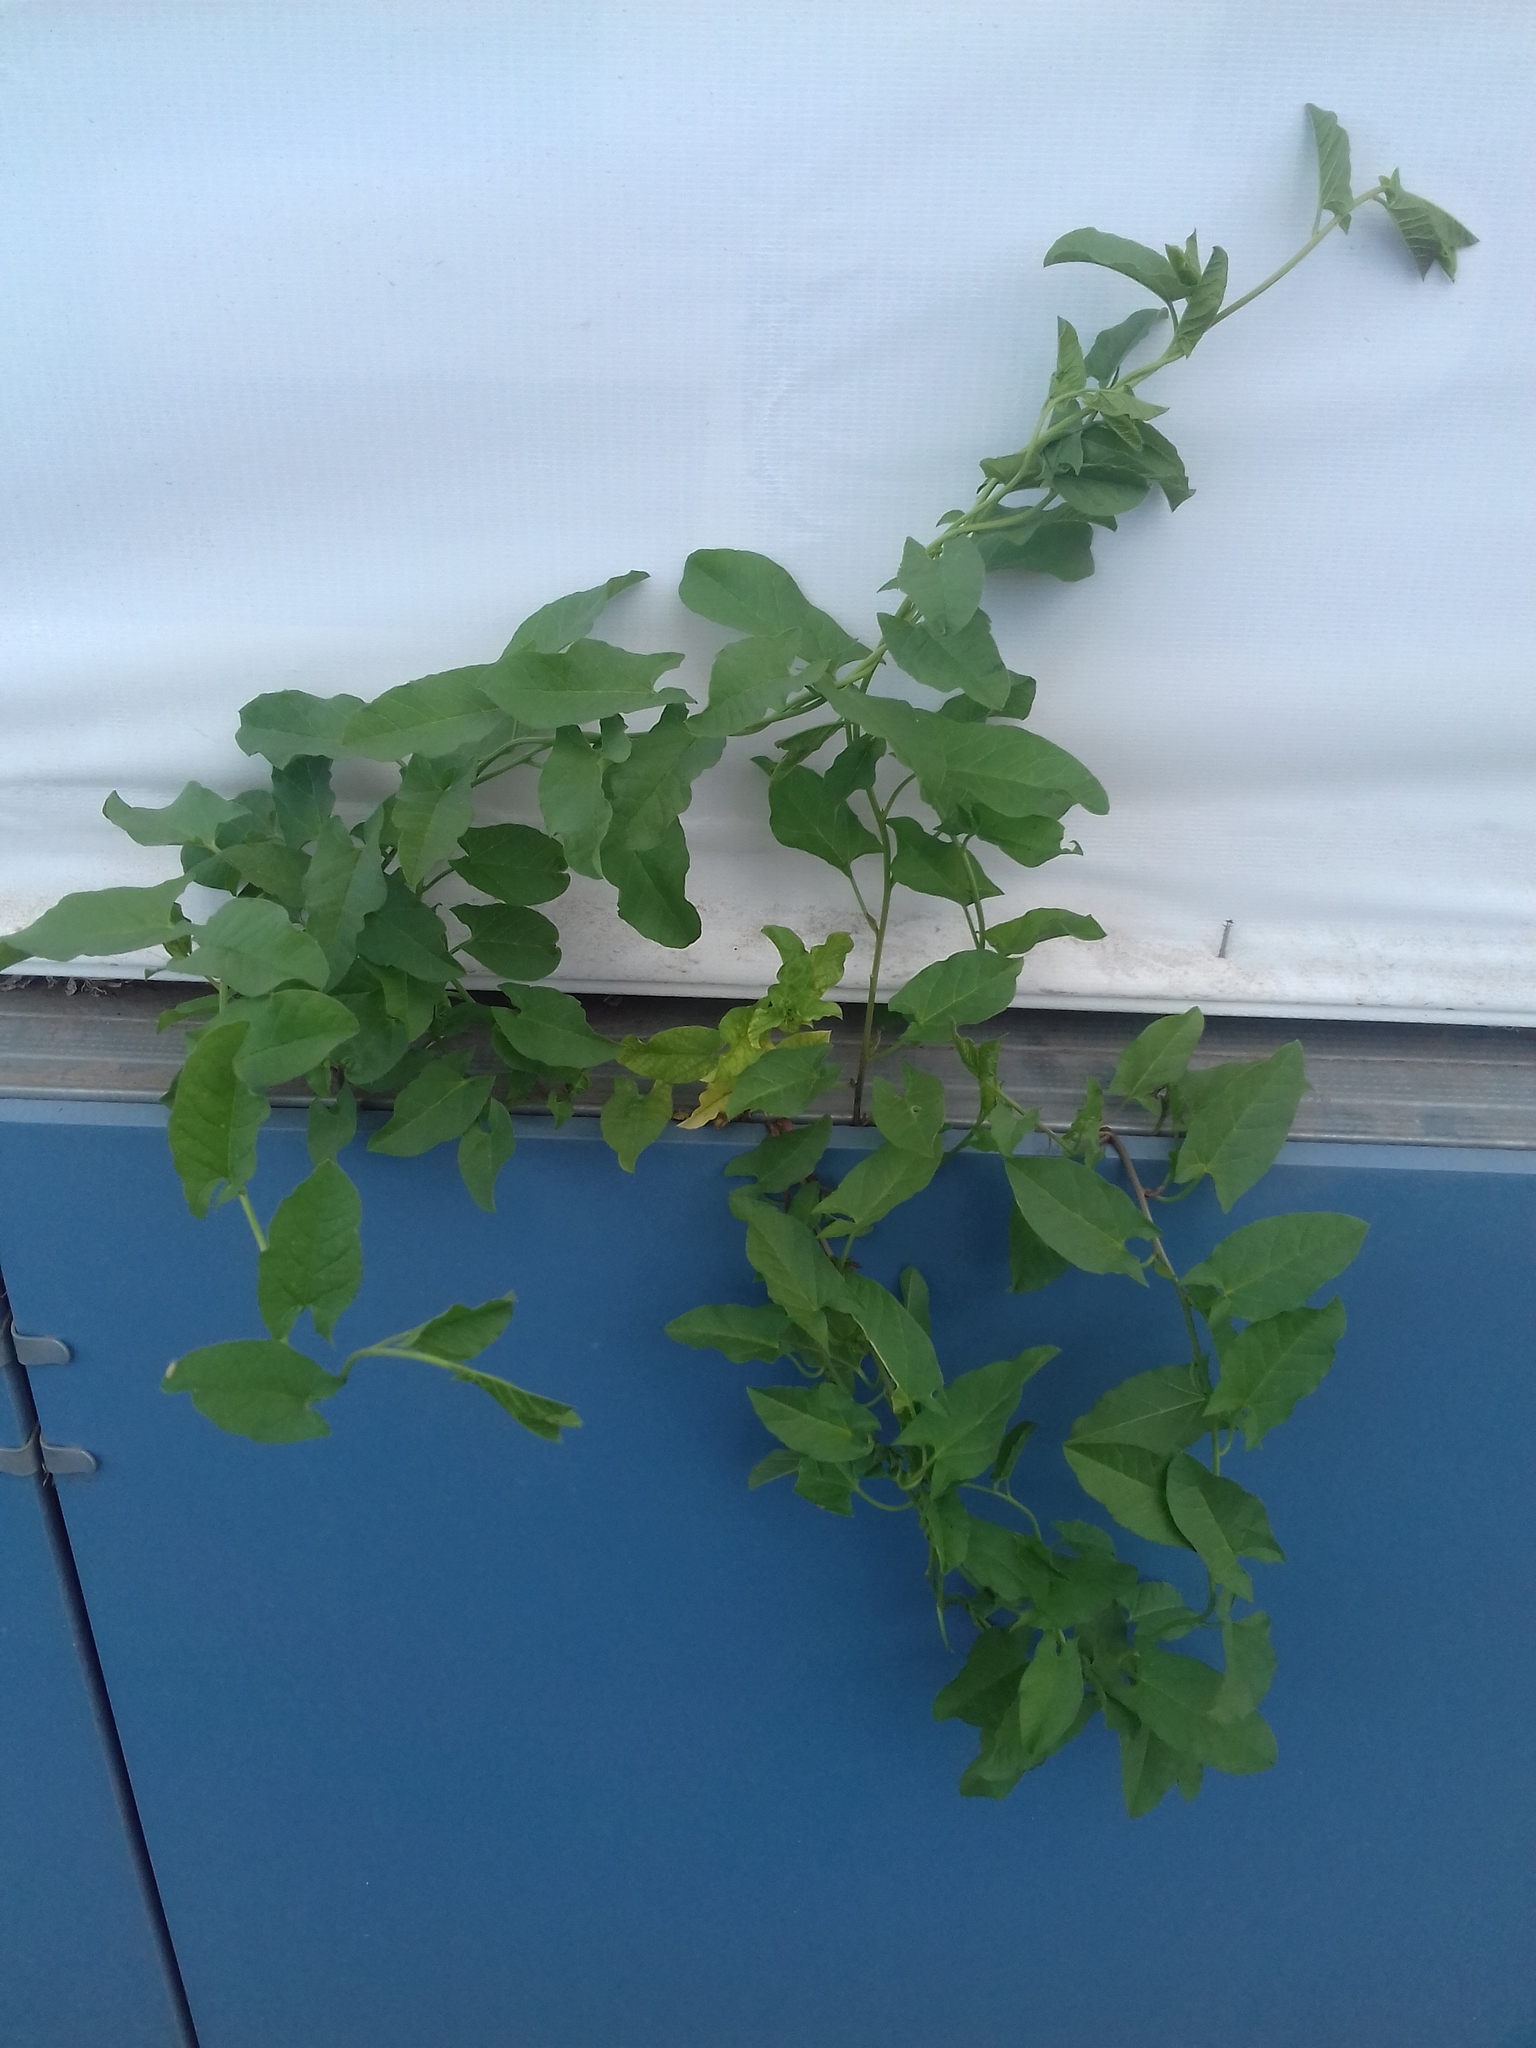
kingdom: Plantae
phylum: Tracheophyta
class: Magnoliopsida
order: Solanales
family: Convolvulaceae
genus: Convolvulus
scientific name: Convolvulus arvensis
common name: Field bindweed
